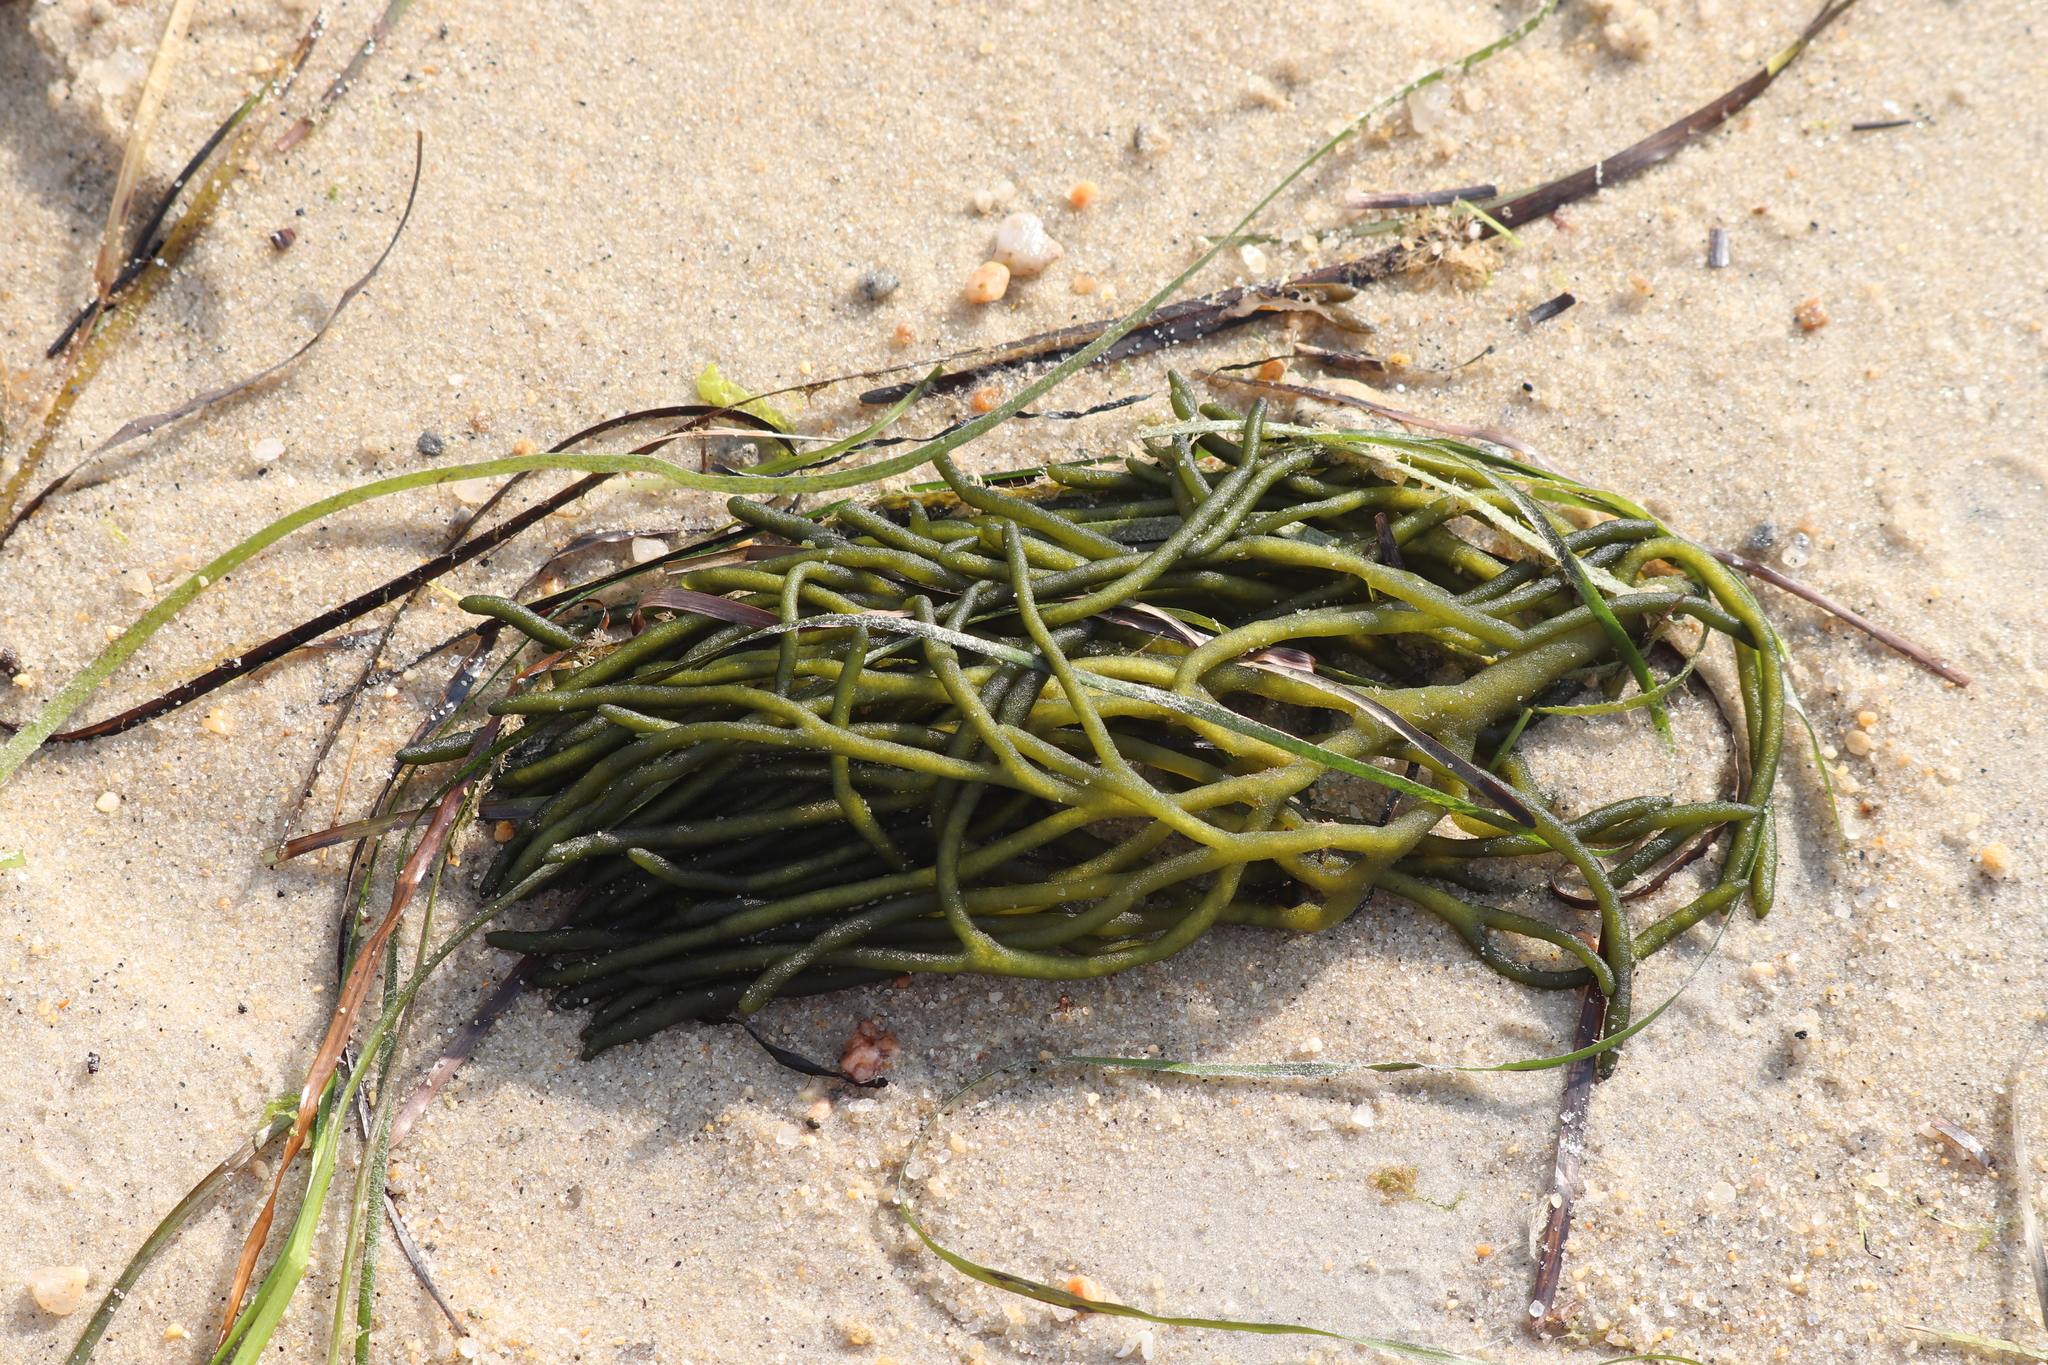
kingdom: Plantae
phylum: Chlorophyta
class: Ulvophyceae
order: Bryopsidales
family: Codiaceae
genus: Codium
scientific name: Codium fragile
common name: Dead man's fingers
